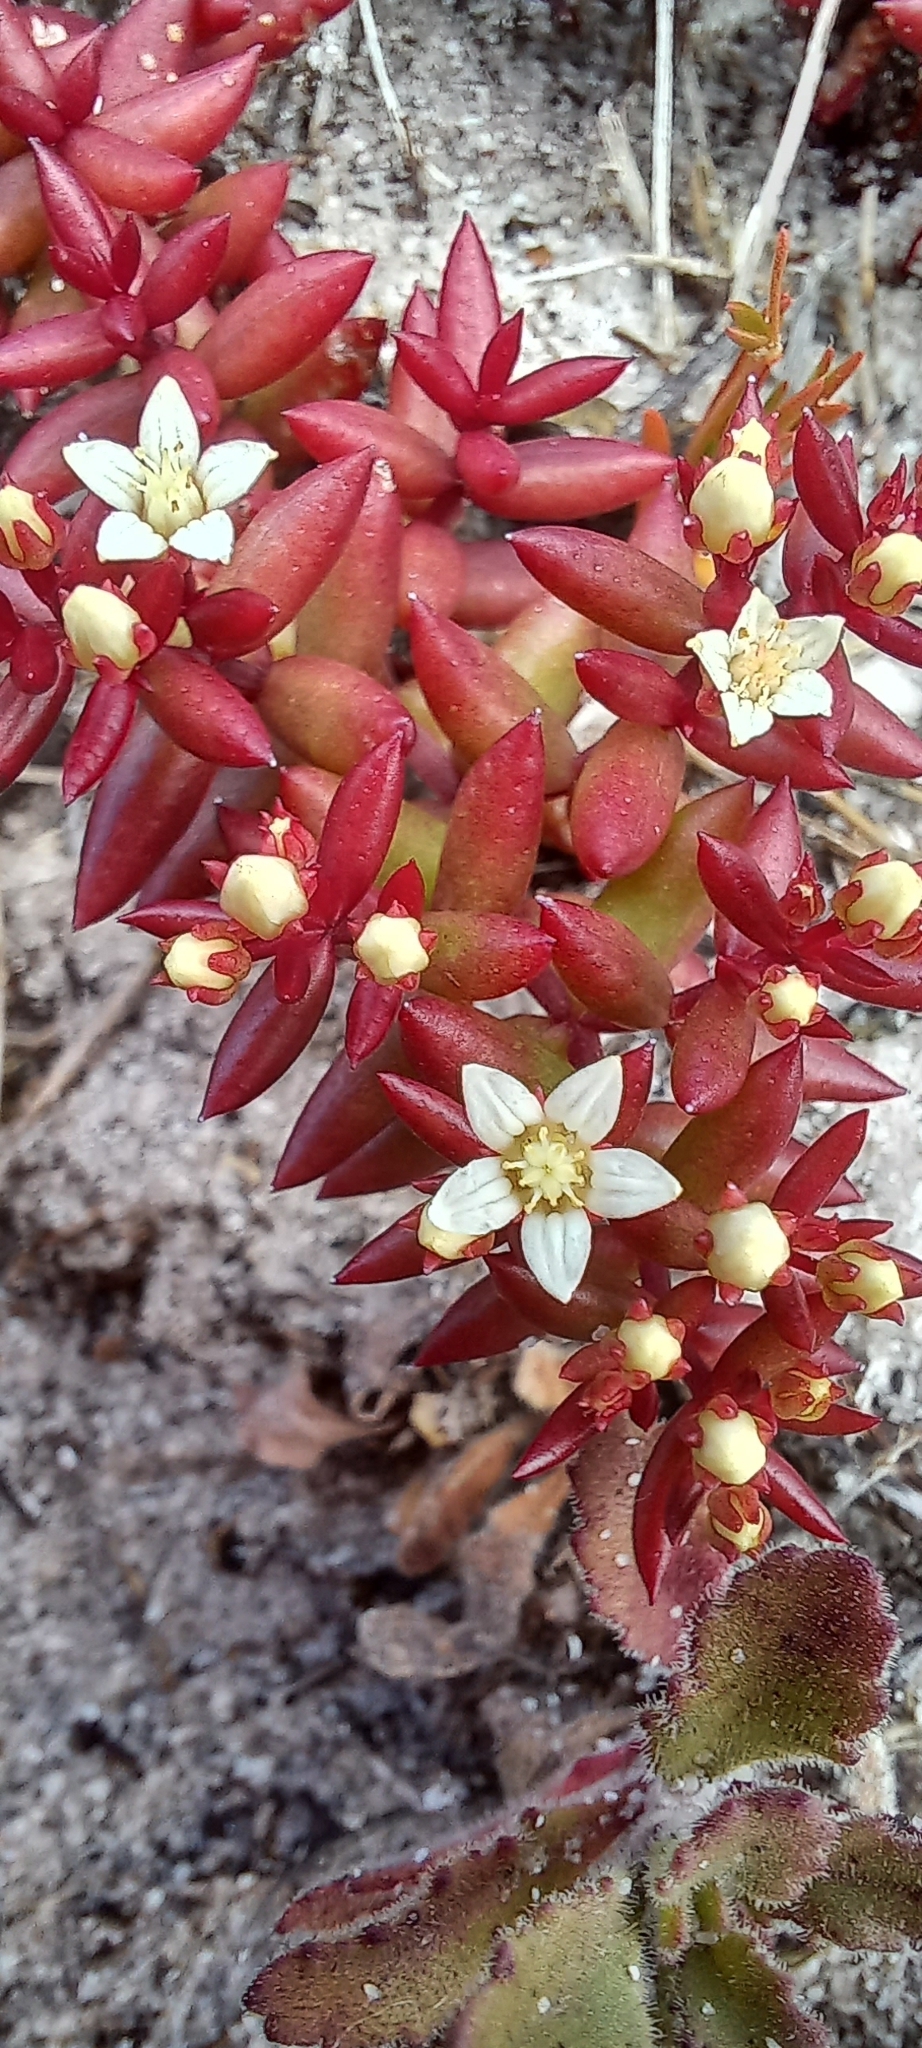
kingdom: Plantae
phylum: Tracheophyta
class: Magnoliopsida
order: Saxifragales
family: Crassulaceae
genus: Crassula
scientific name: Crassula expansa
